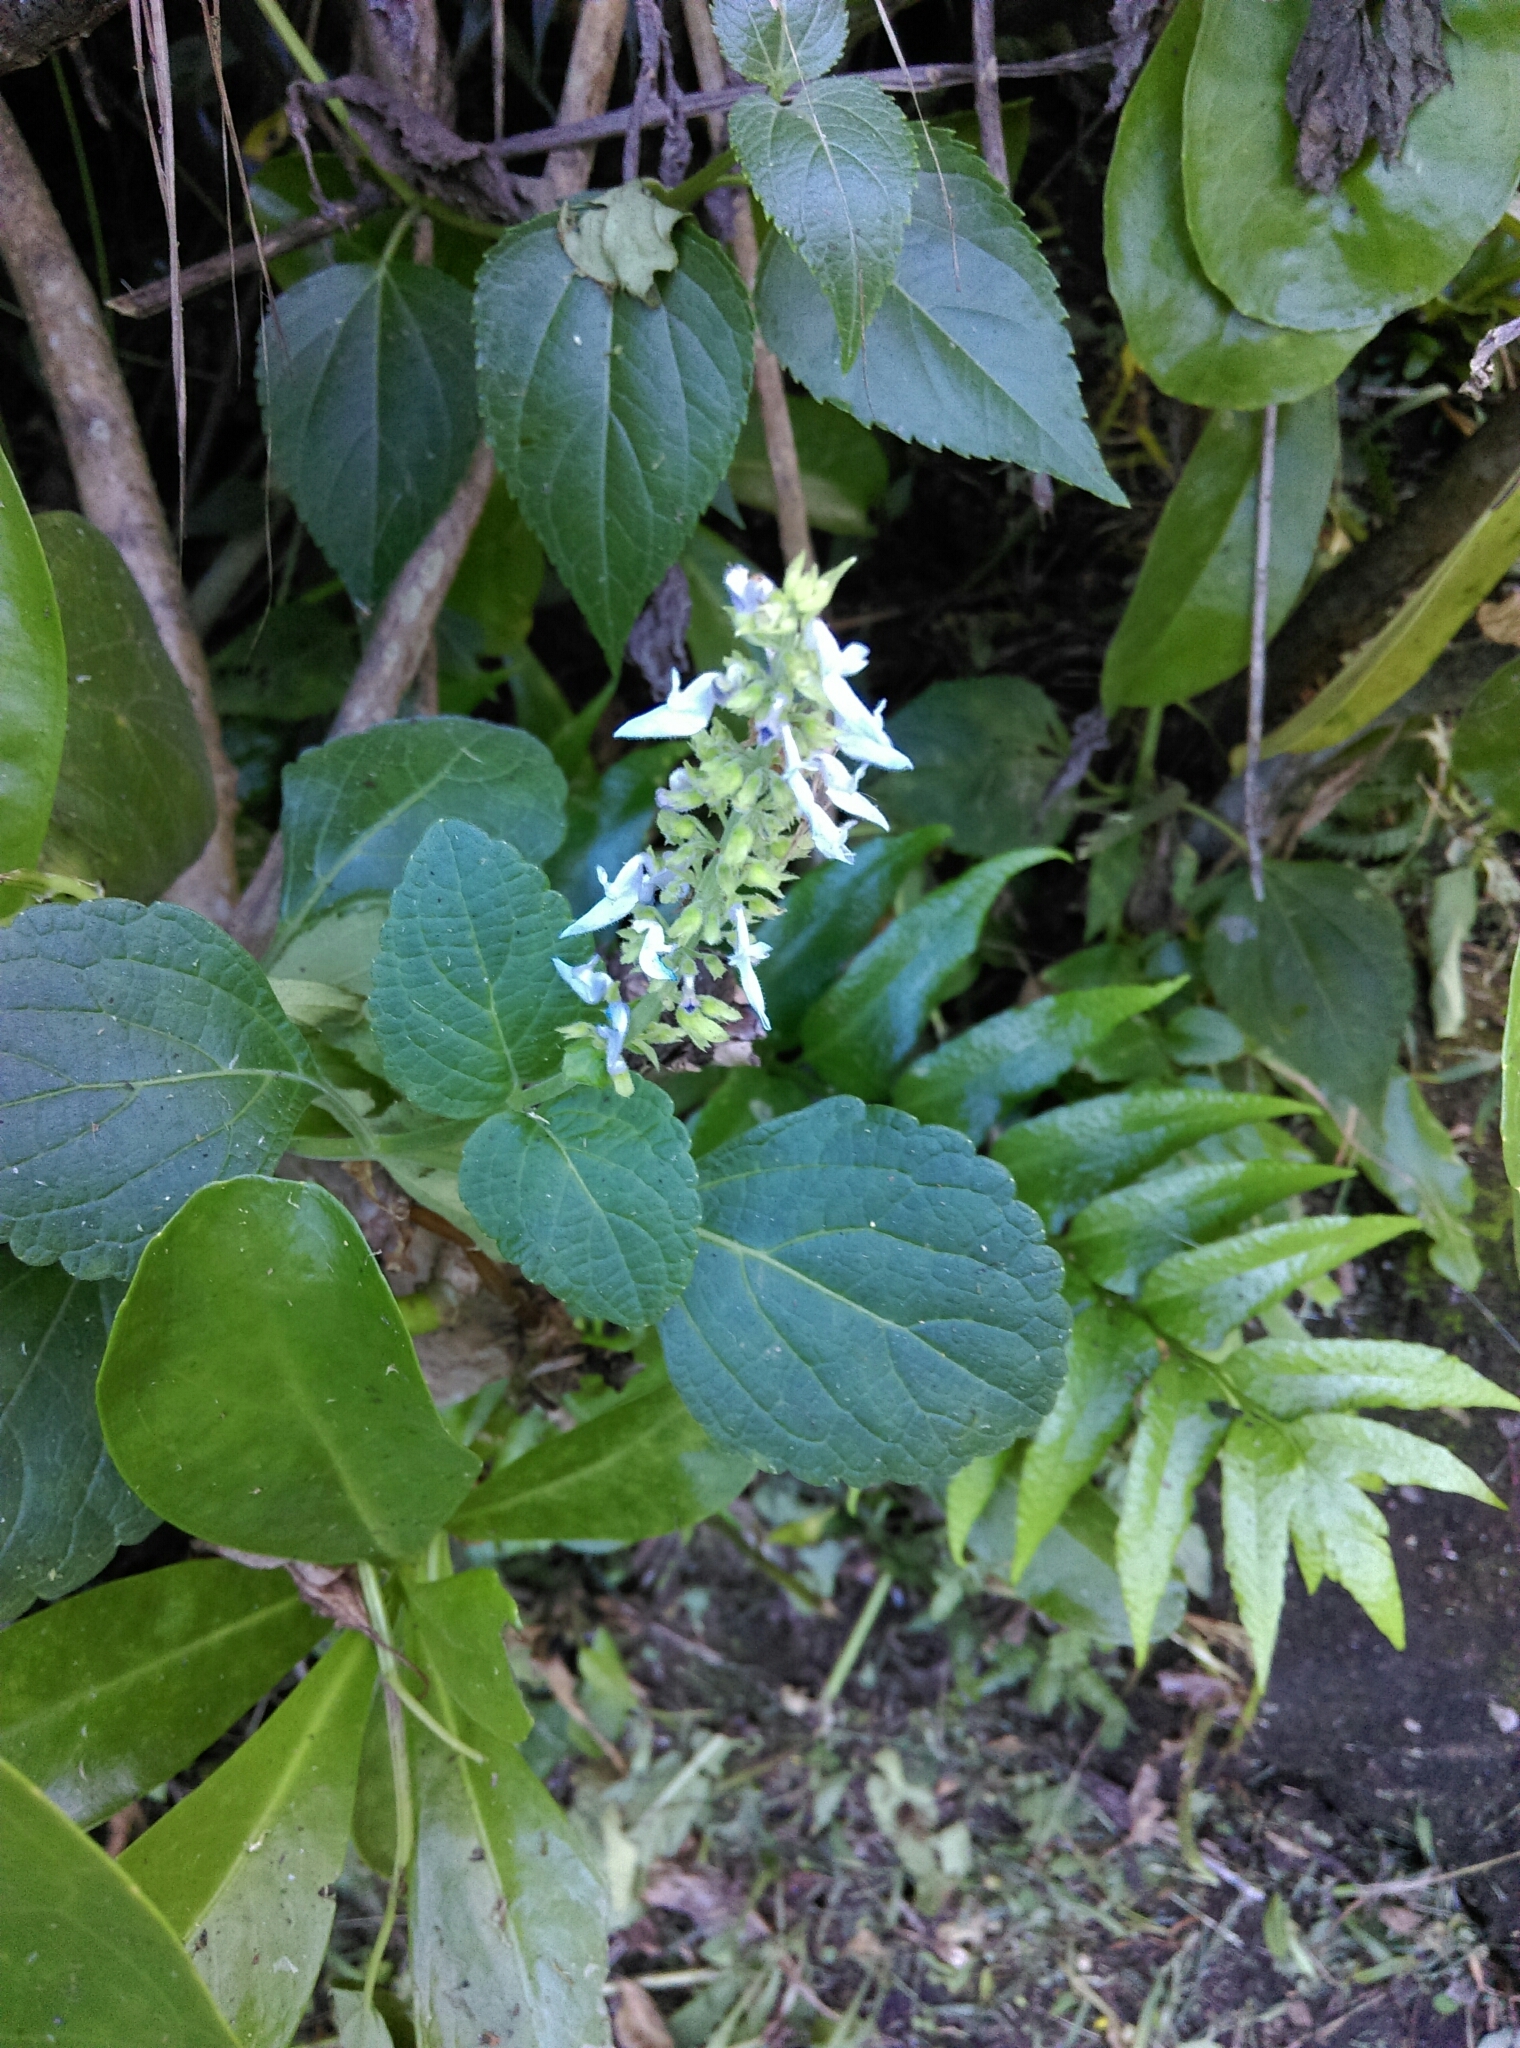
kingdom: Plantae
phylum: Tracheophyta
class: Magnoliopsida
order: Lamiales
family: Lamiaceae
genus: Coleus
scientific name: Coleus scutellarioides
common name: Coleus
